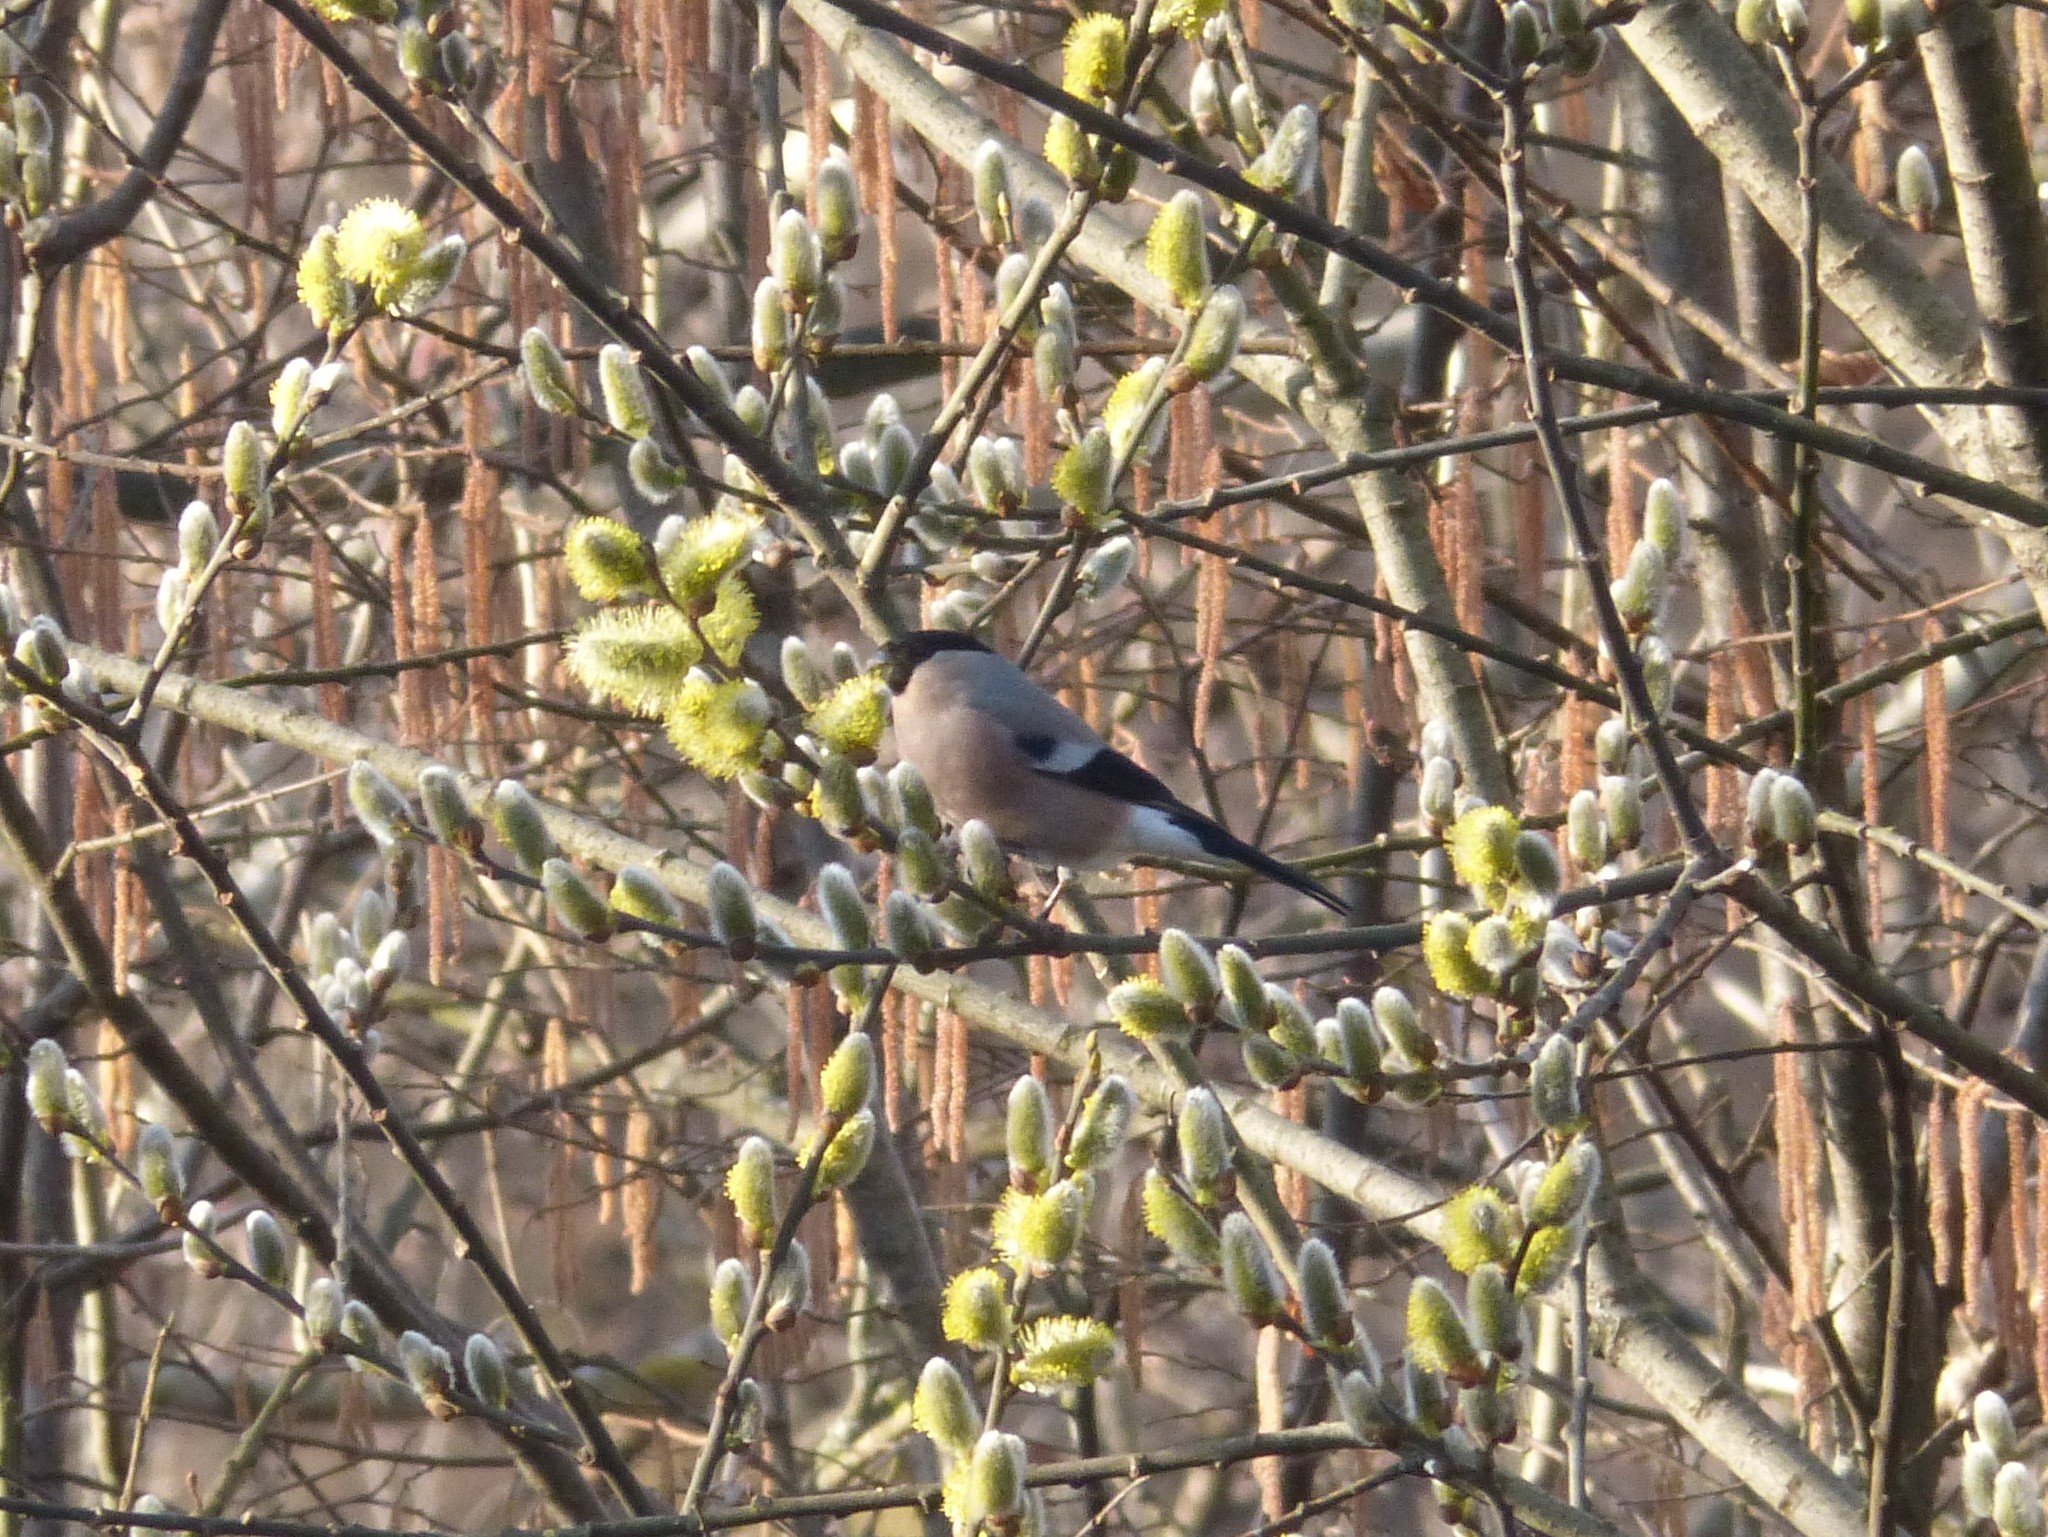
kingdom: Animalia
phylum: Chordata
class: Aves
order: Passeriformes
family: Fringillidae
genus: Pyrrhula
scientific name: Pyrrhula pyrrhula
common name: Eurasian bullfinch
